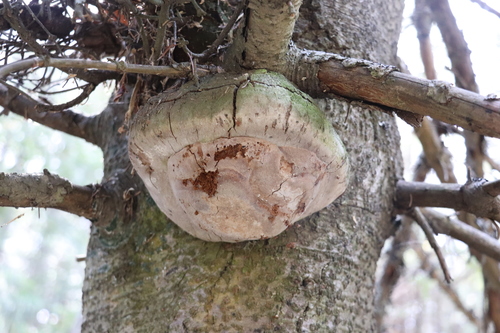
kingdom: Fungi
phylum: Basidiomycota
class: Agaricomycetes
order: Hymenochaetales
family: Hymenochaetaceae
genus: Phellinus
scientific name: Phellinus hartigii
